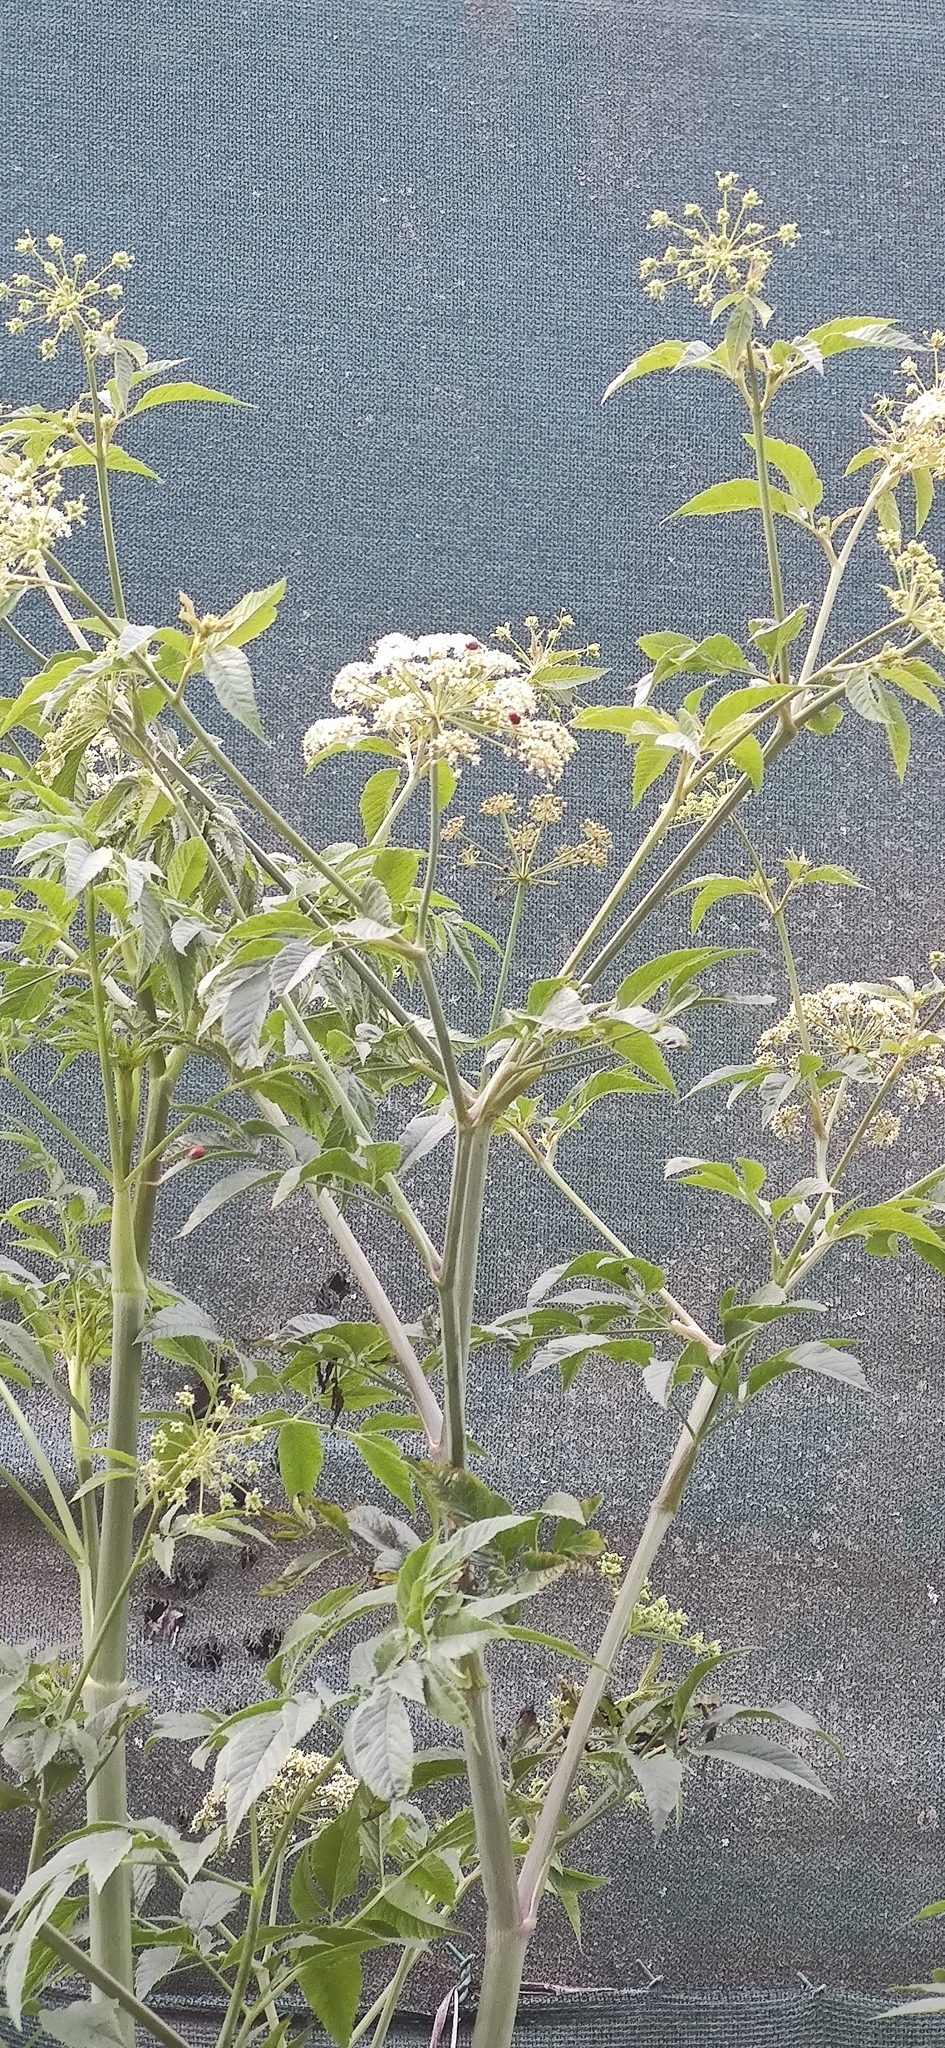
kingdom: Plantae
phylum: Tracheophyta
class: Magnoliopsida
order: Apiales
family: Apiaceae
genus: Cicuta
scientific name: Cicuta maculata
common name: Spotted cowbane
